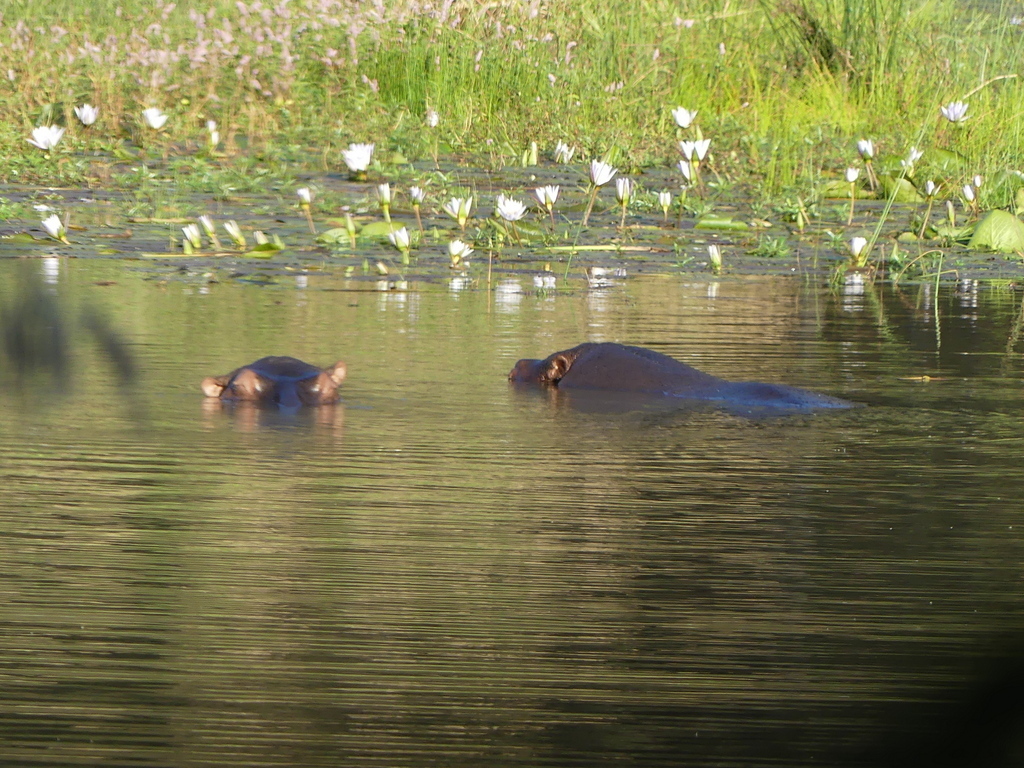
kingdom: Animalia
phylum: Chordata
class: Mammalia
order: Artiodactyla
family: Hippopotamidae
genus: Hippopotamus
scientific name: Hippopotamus amphibius
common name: Common hippopotamus
